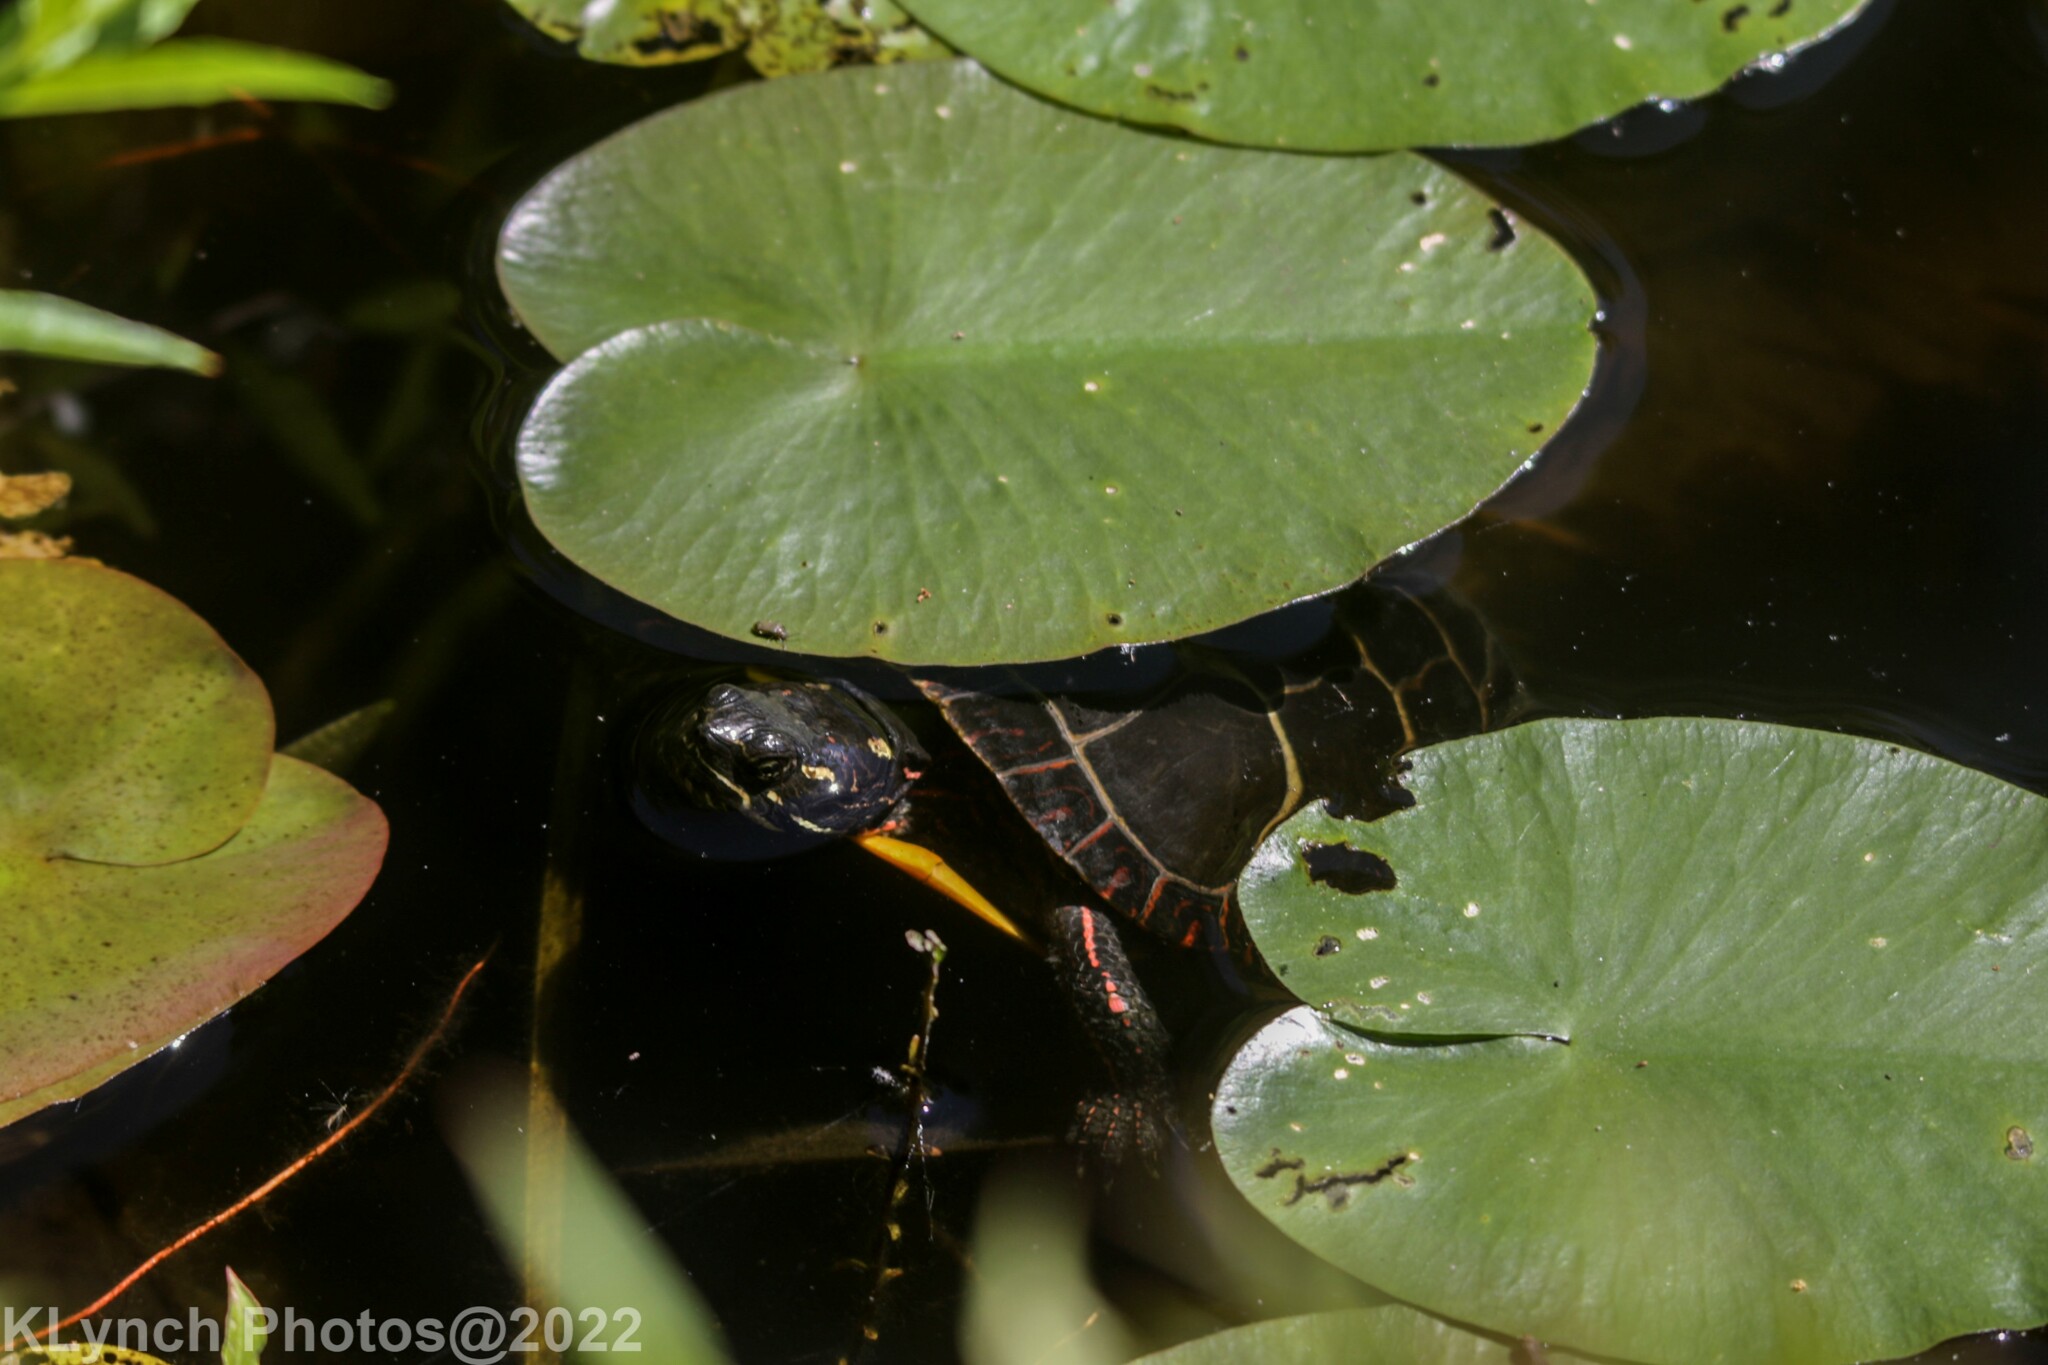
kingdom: Animalia
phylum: Chordata
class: Testudines
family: Emydidae
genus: Chrysemys
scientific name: Chrysemys picta
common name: Painted turtle
